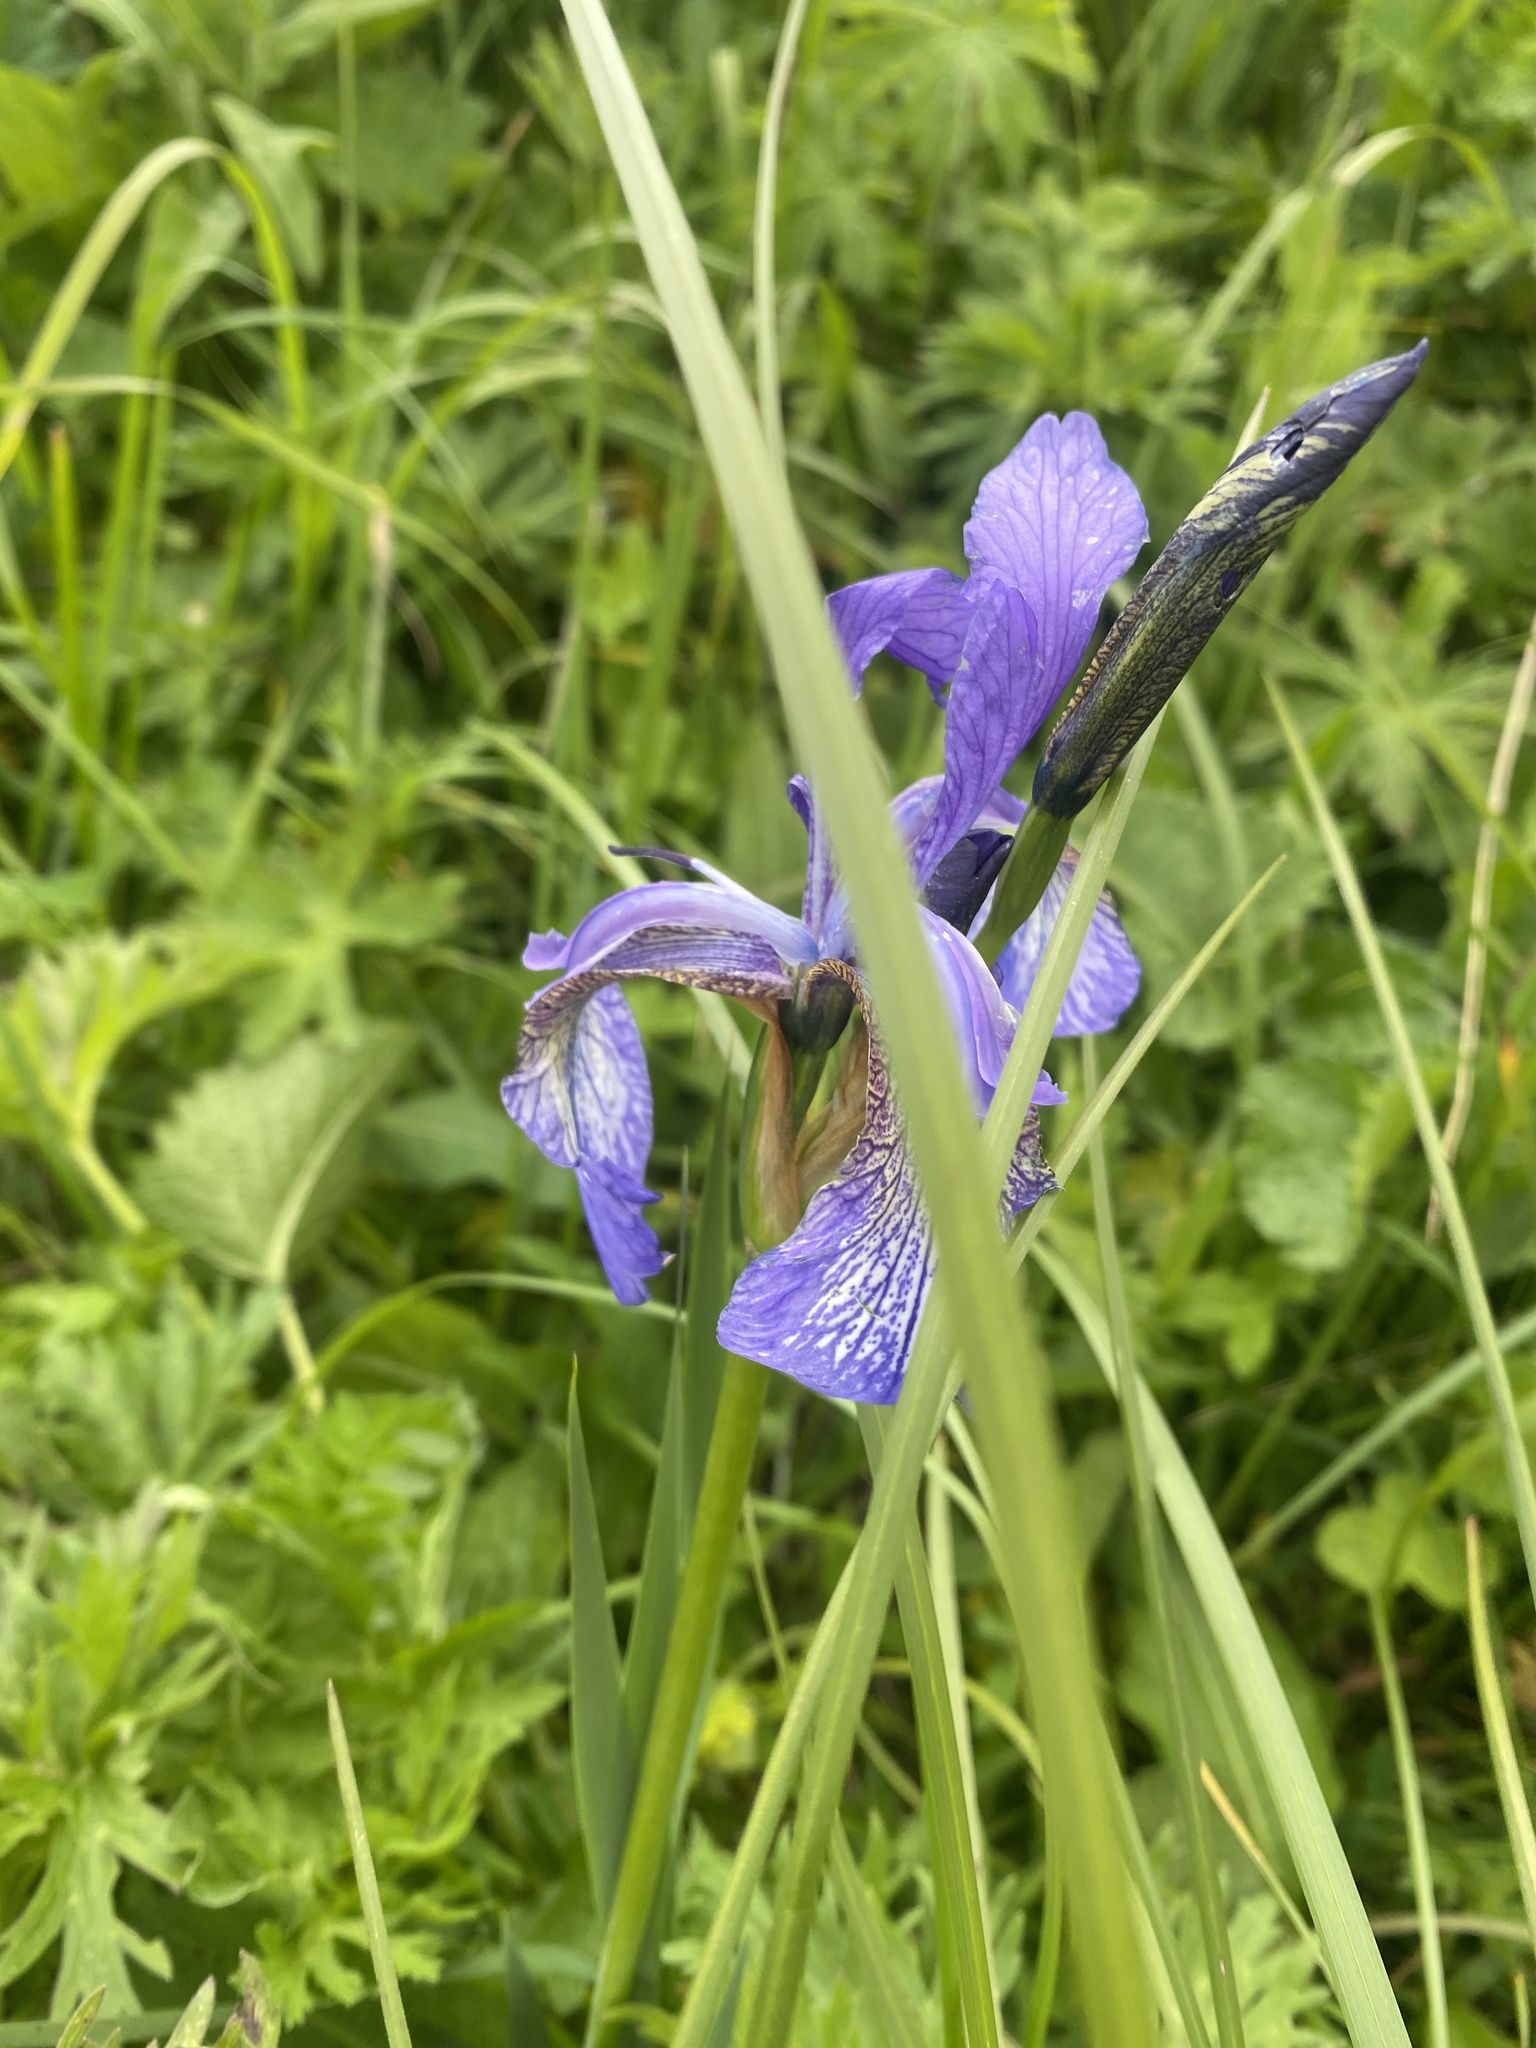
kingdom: Plantae
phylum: Tracheophyta
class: Liliopsida
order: Asparagales
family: Iridaceae
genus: Iris
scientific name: Iris sibirica
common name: Siberian iris
